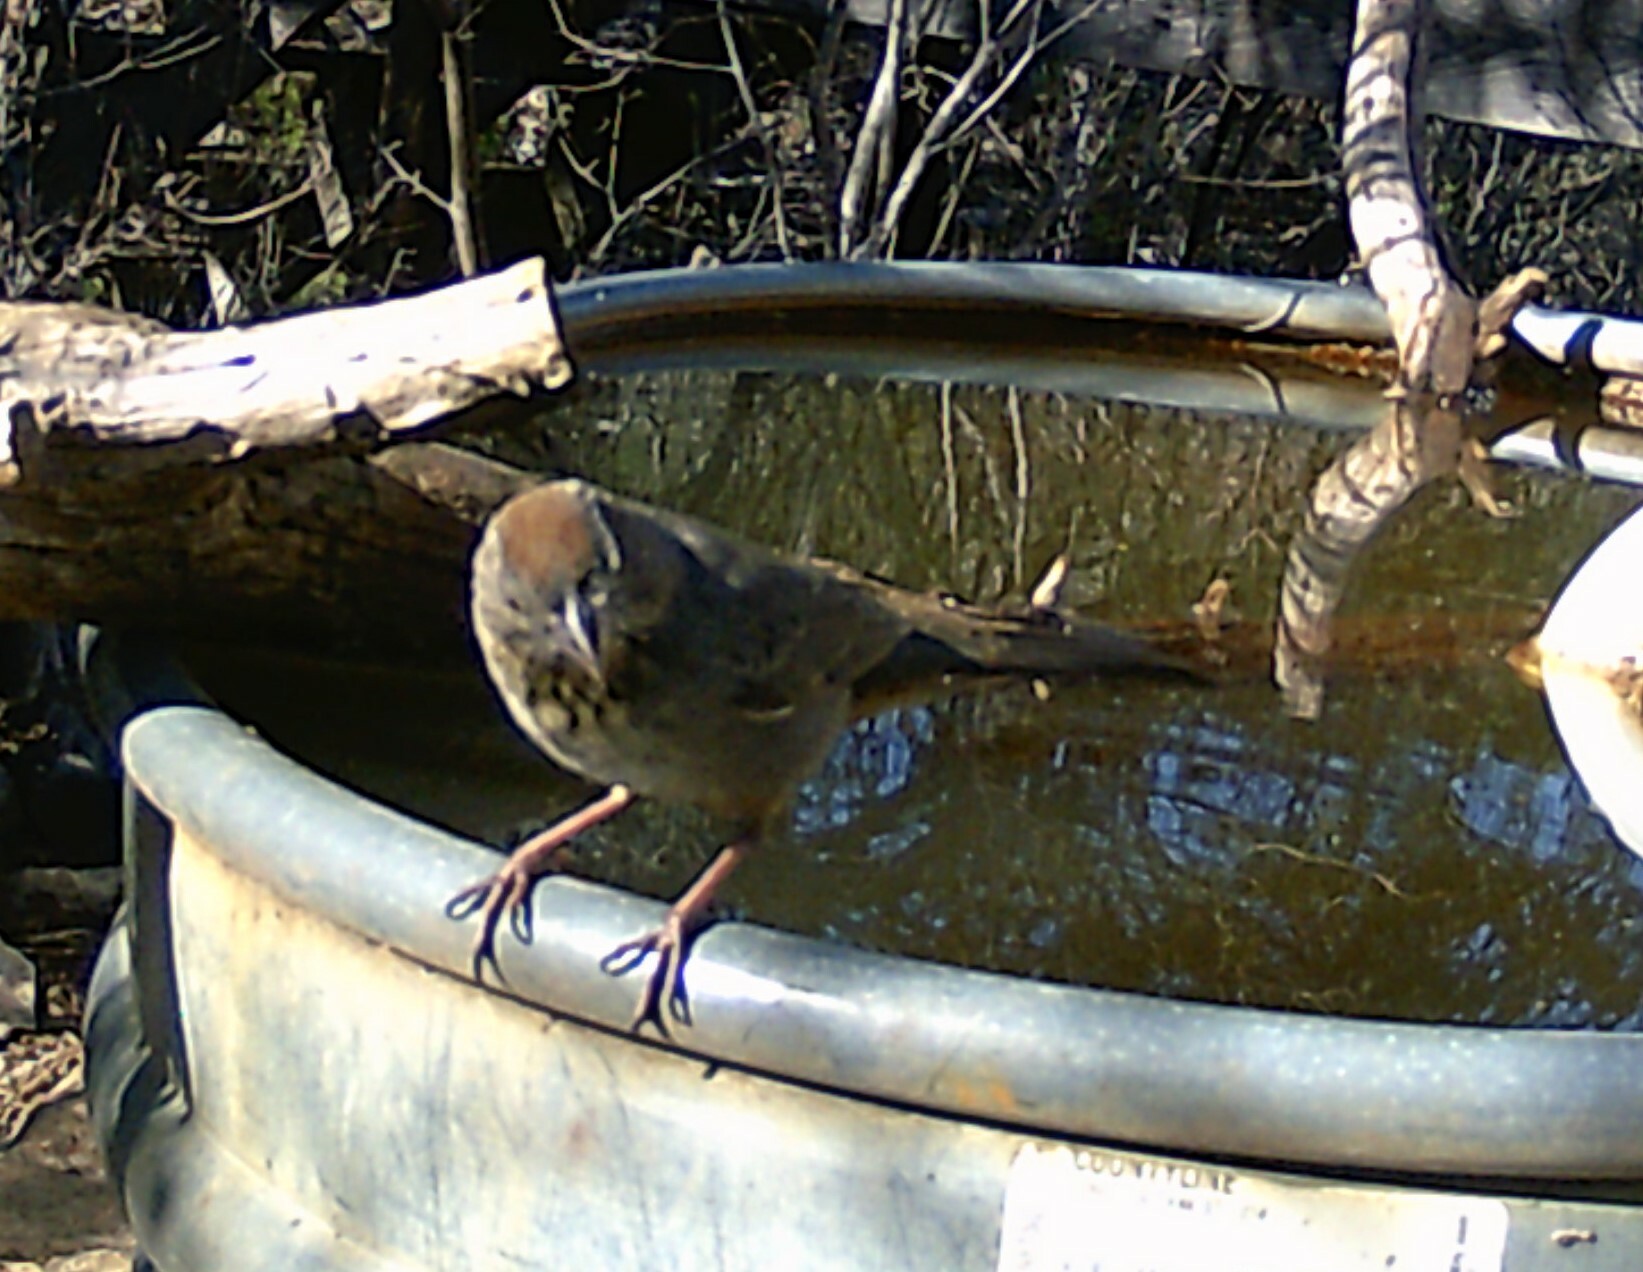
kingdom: Animalia
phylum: Chordata
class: Aves
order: Passeriformes
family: Passerellidae
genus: Melozone
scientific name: Melozone fusca
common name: Canyon towhee
